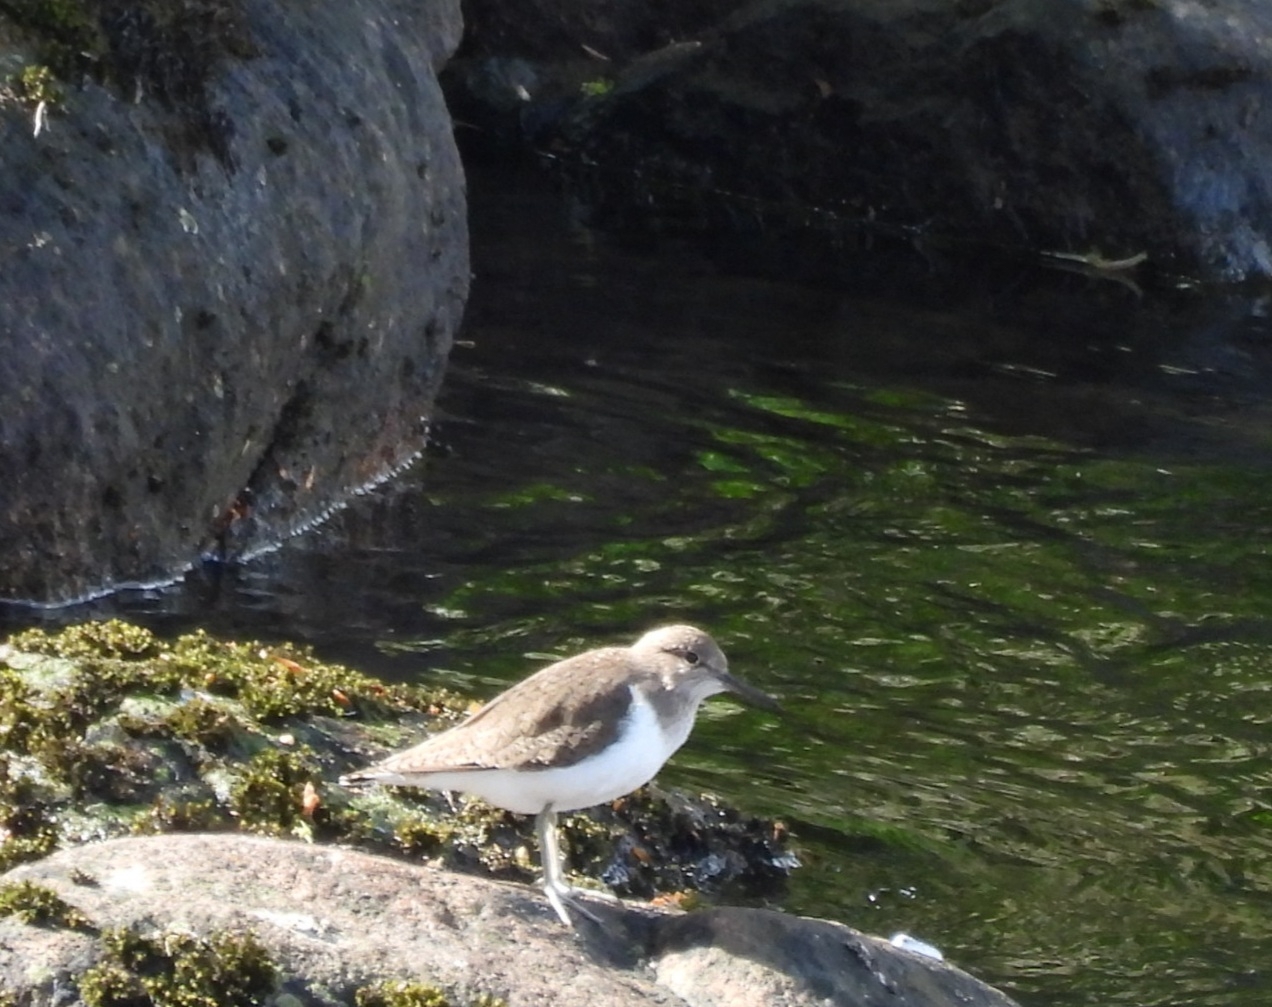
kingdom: Animalia
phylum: Chordata
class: Aves
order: Charadriiformes
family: Scolopacidae
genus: Actitis
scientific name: Actitis hypoleucos
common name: Common sandpiper
